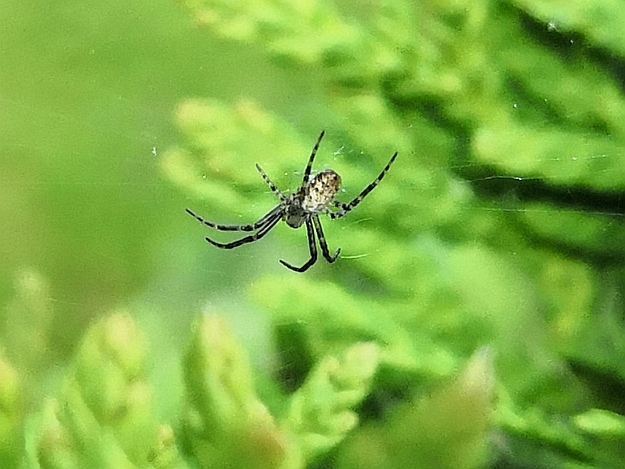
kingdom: Animalia
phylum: Arthropoda
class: Arachnida
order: Araneae
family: Araneidae
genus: Argiope
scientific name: Argiope bruennichi
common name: Wasp spider
